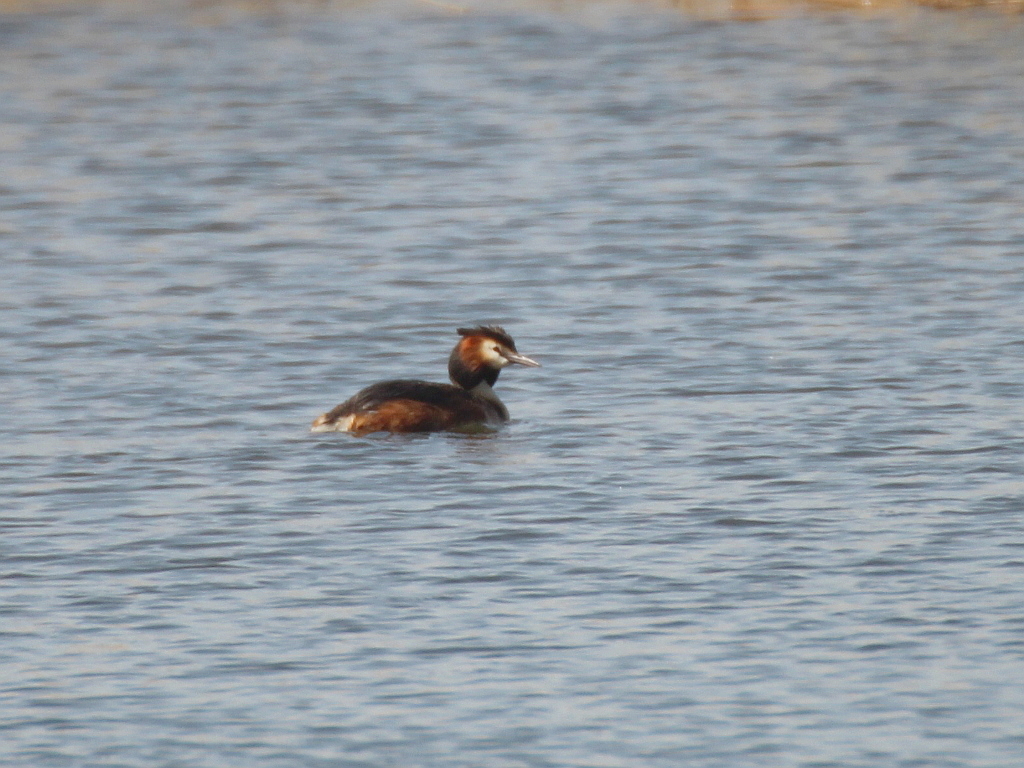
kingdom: Animalia
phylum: Chordata
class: Aves
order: Podicipediformes
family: Podicipedidae
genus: Podiceps
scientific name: Podiceps cristatus
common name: Great crested grebe
